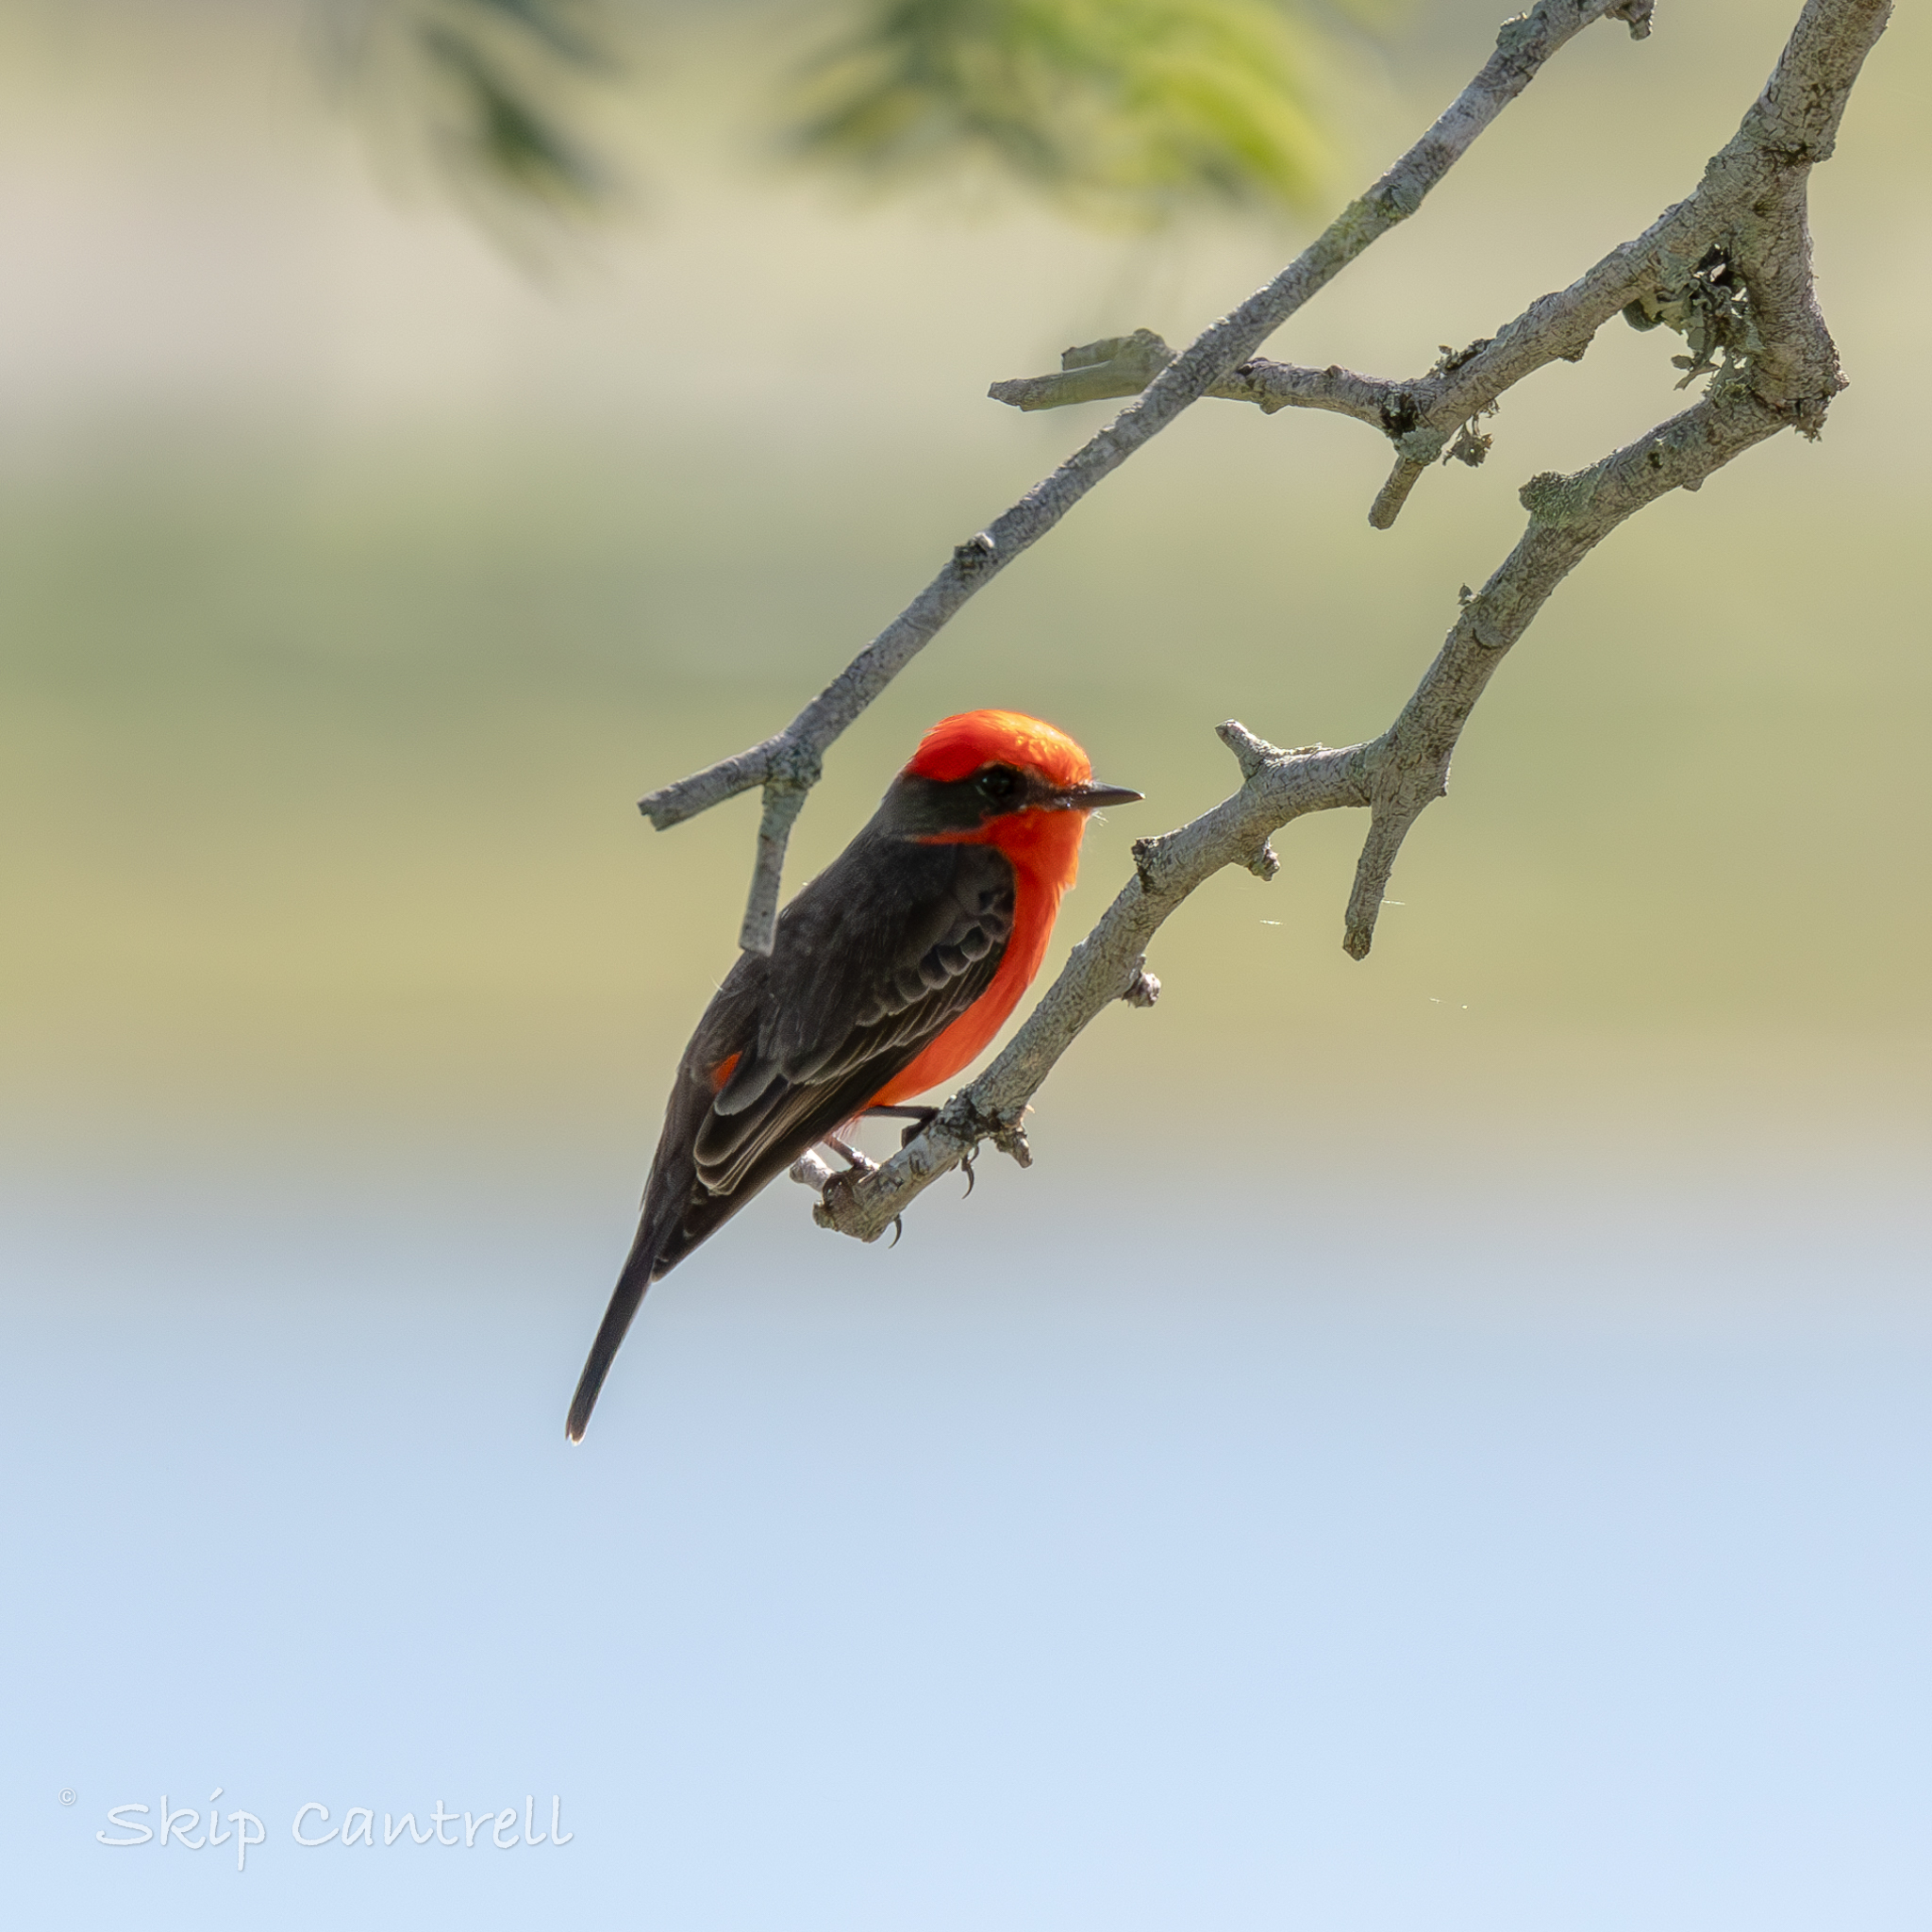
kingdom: Animalia
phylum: Chordata
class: Aves
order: Passeriformes
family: Tyrannidae
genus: Pyrocephalus
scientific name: Pyrocephalus rubinus
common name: Vermilion flycatcher
